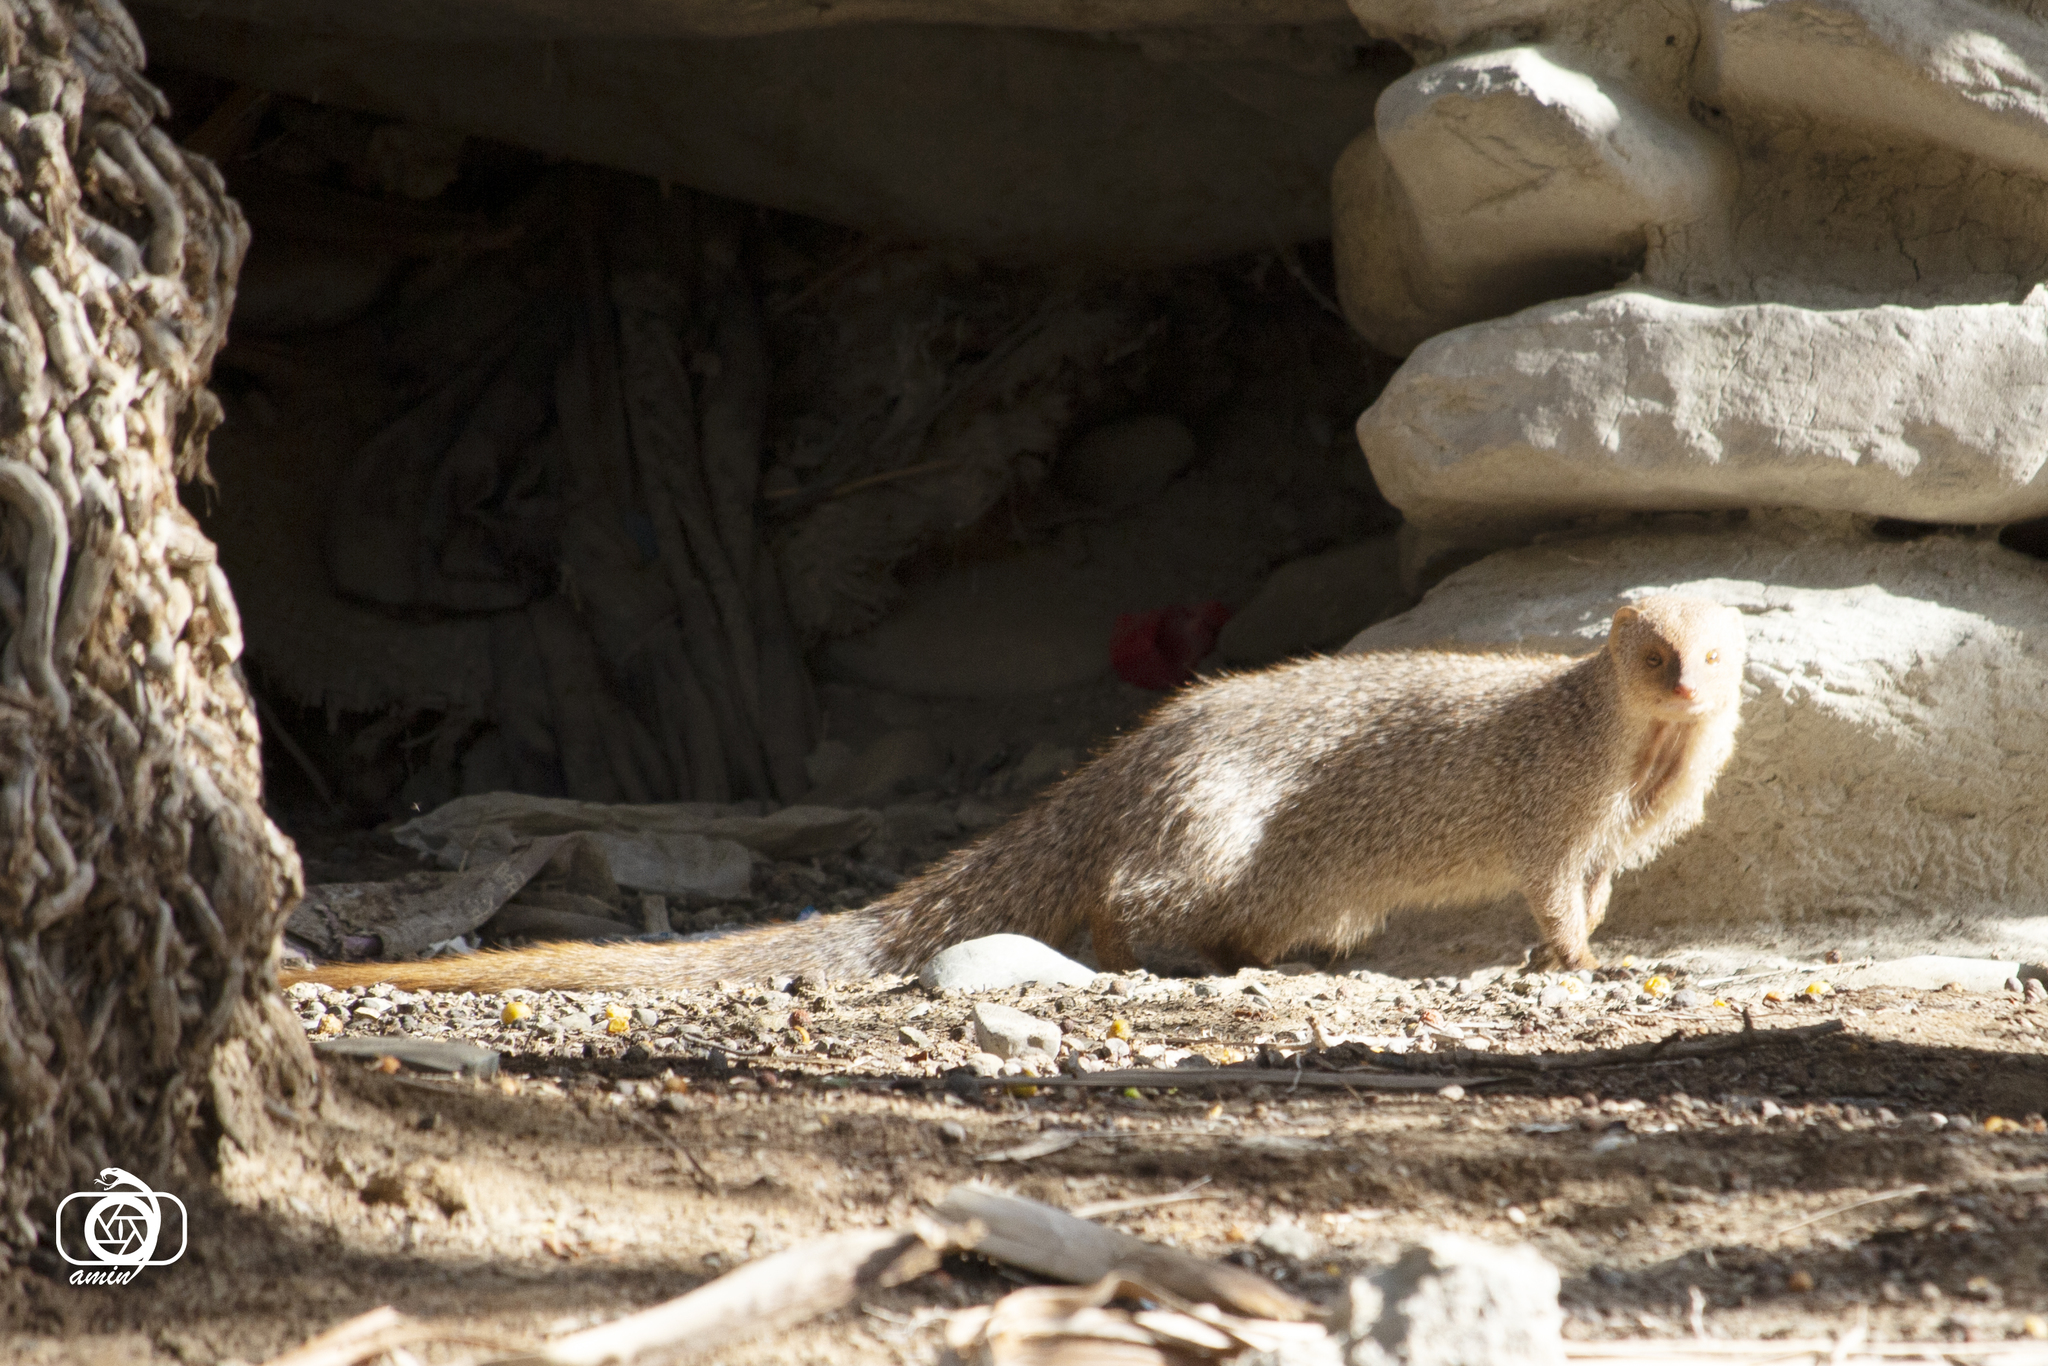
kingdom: Animalia
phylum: Chordata
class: Mammalia
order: Carnivora
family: Herpestidae
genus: Herpestes
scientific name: Herpestes edwardsi
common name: Indian gray mongoose
